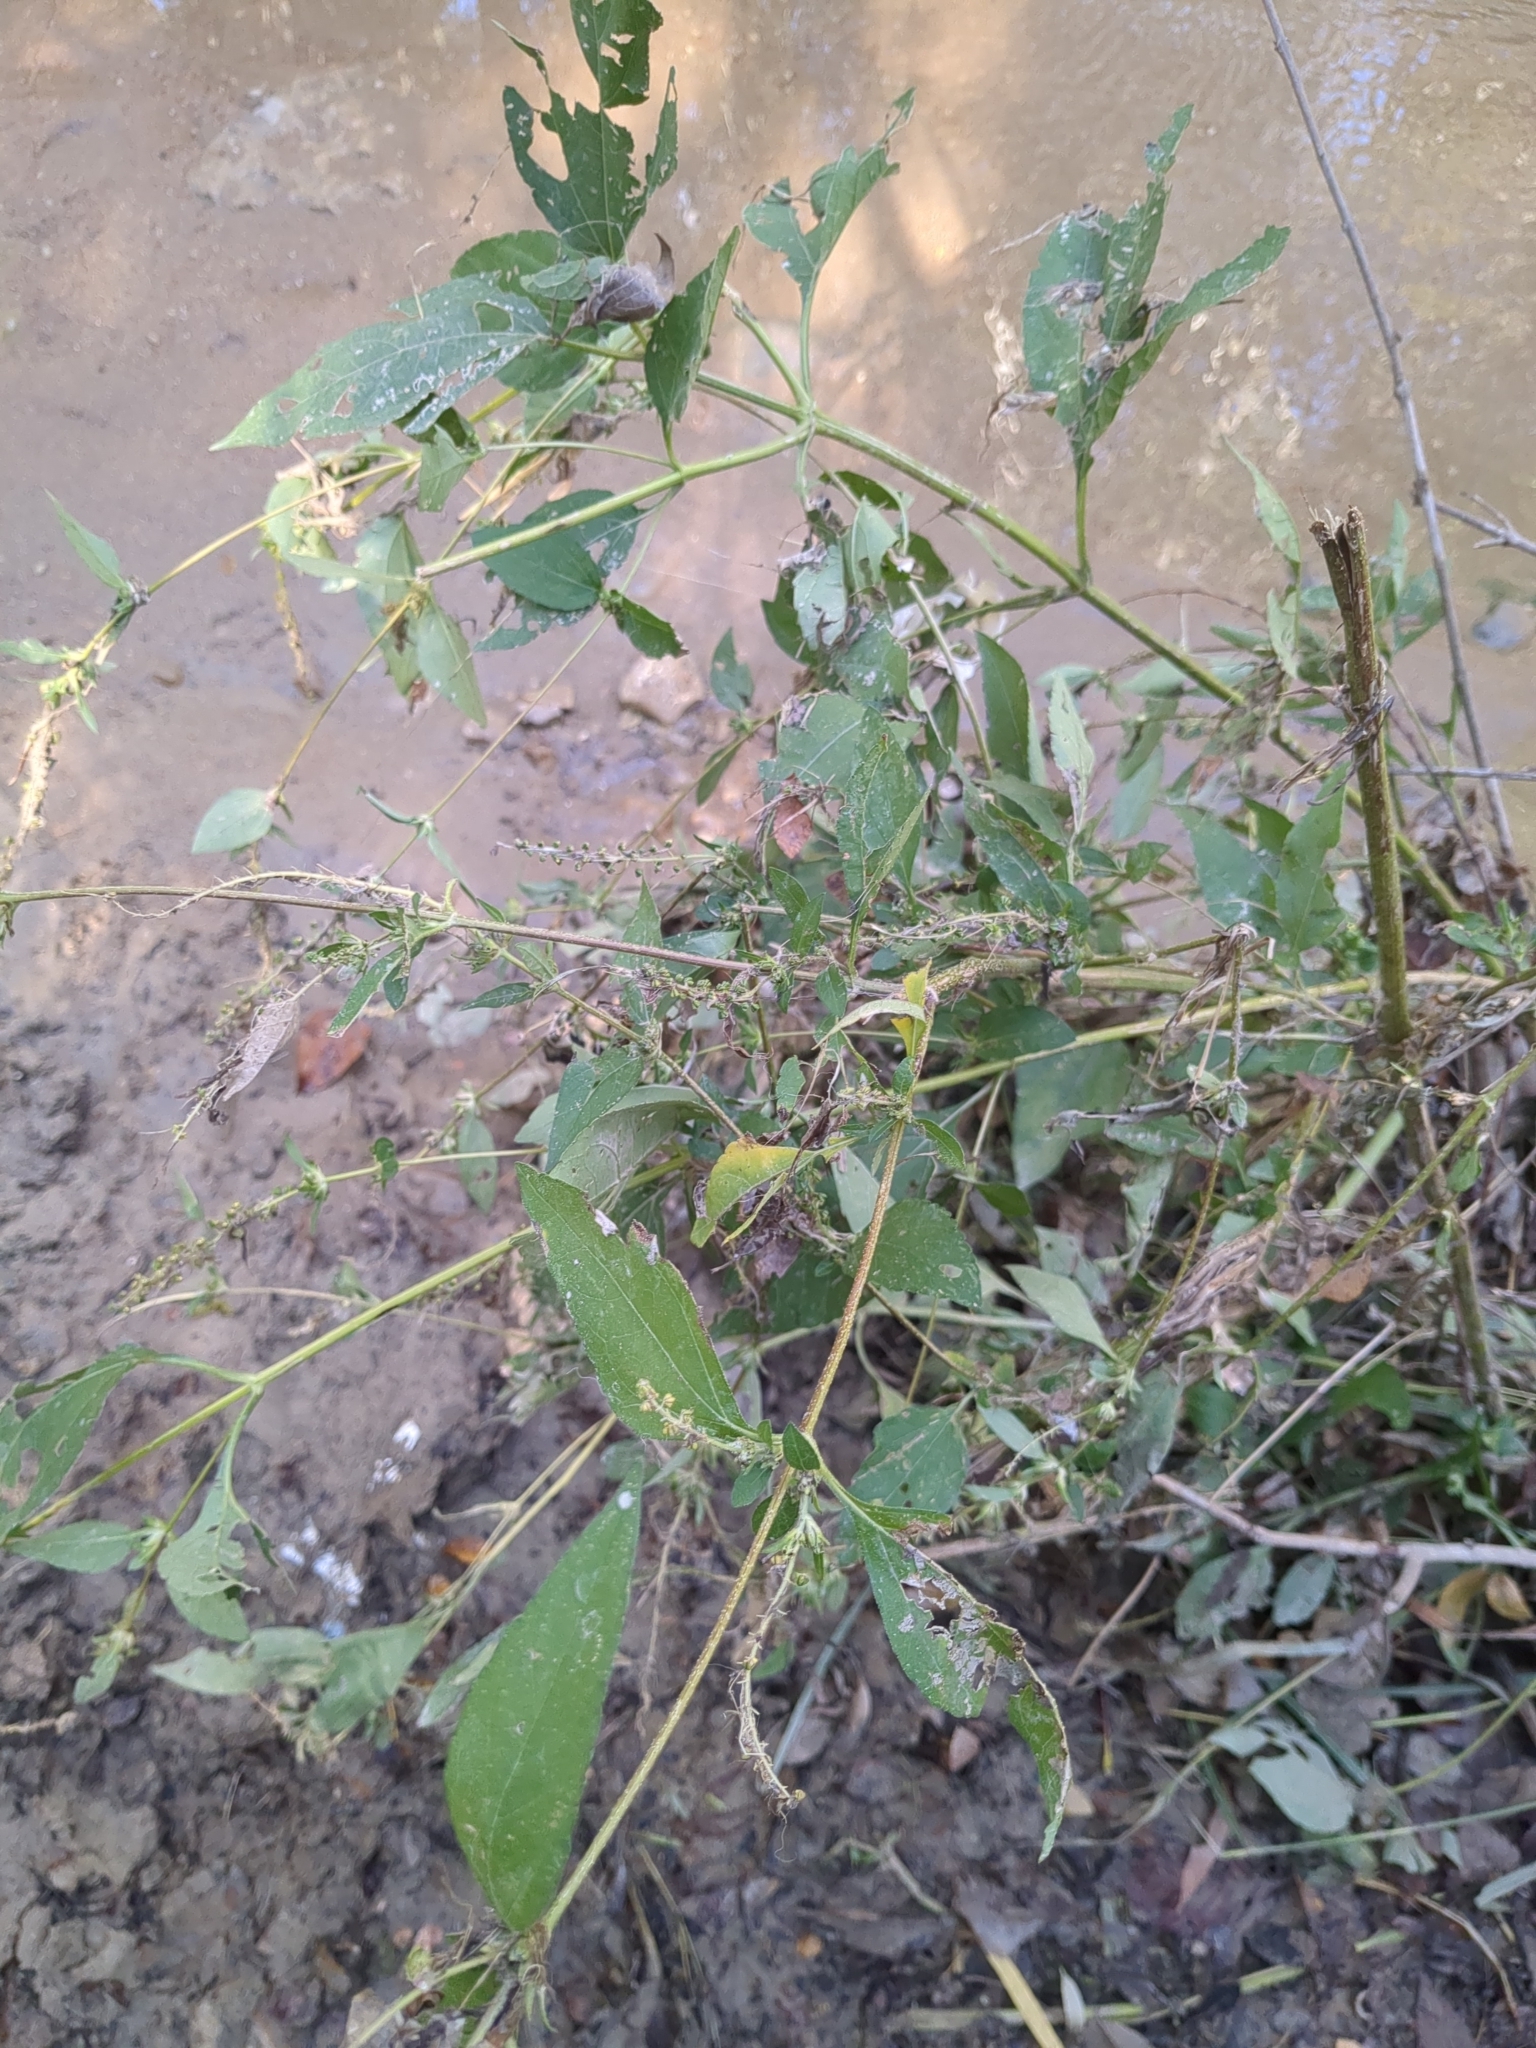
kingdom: Plantae
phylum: Tracheophyta
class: Magnoliopsida
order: Asterales
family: Asteraceae
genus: Ambrosia
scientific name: Ambrosia trifida
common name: Giant ragweed
